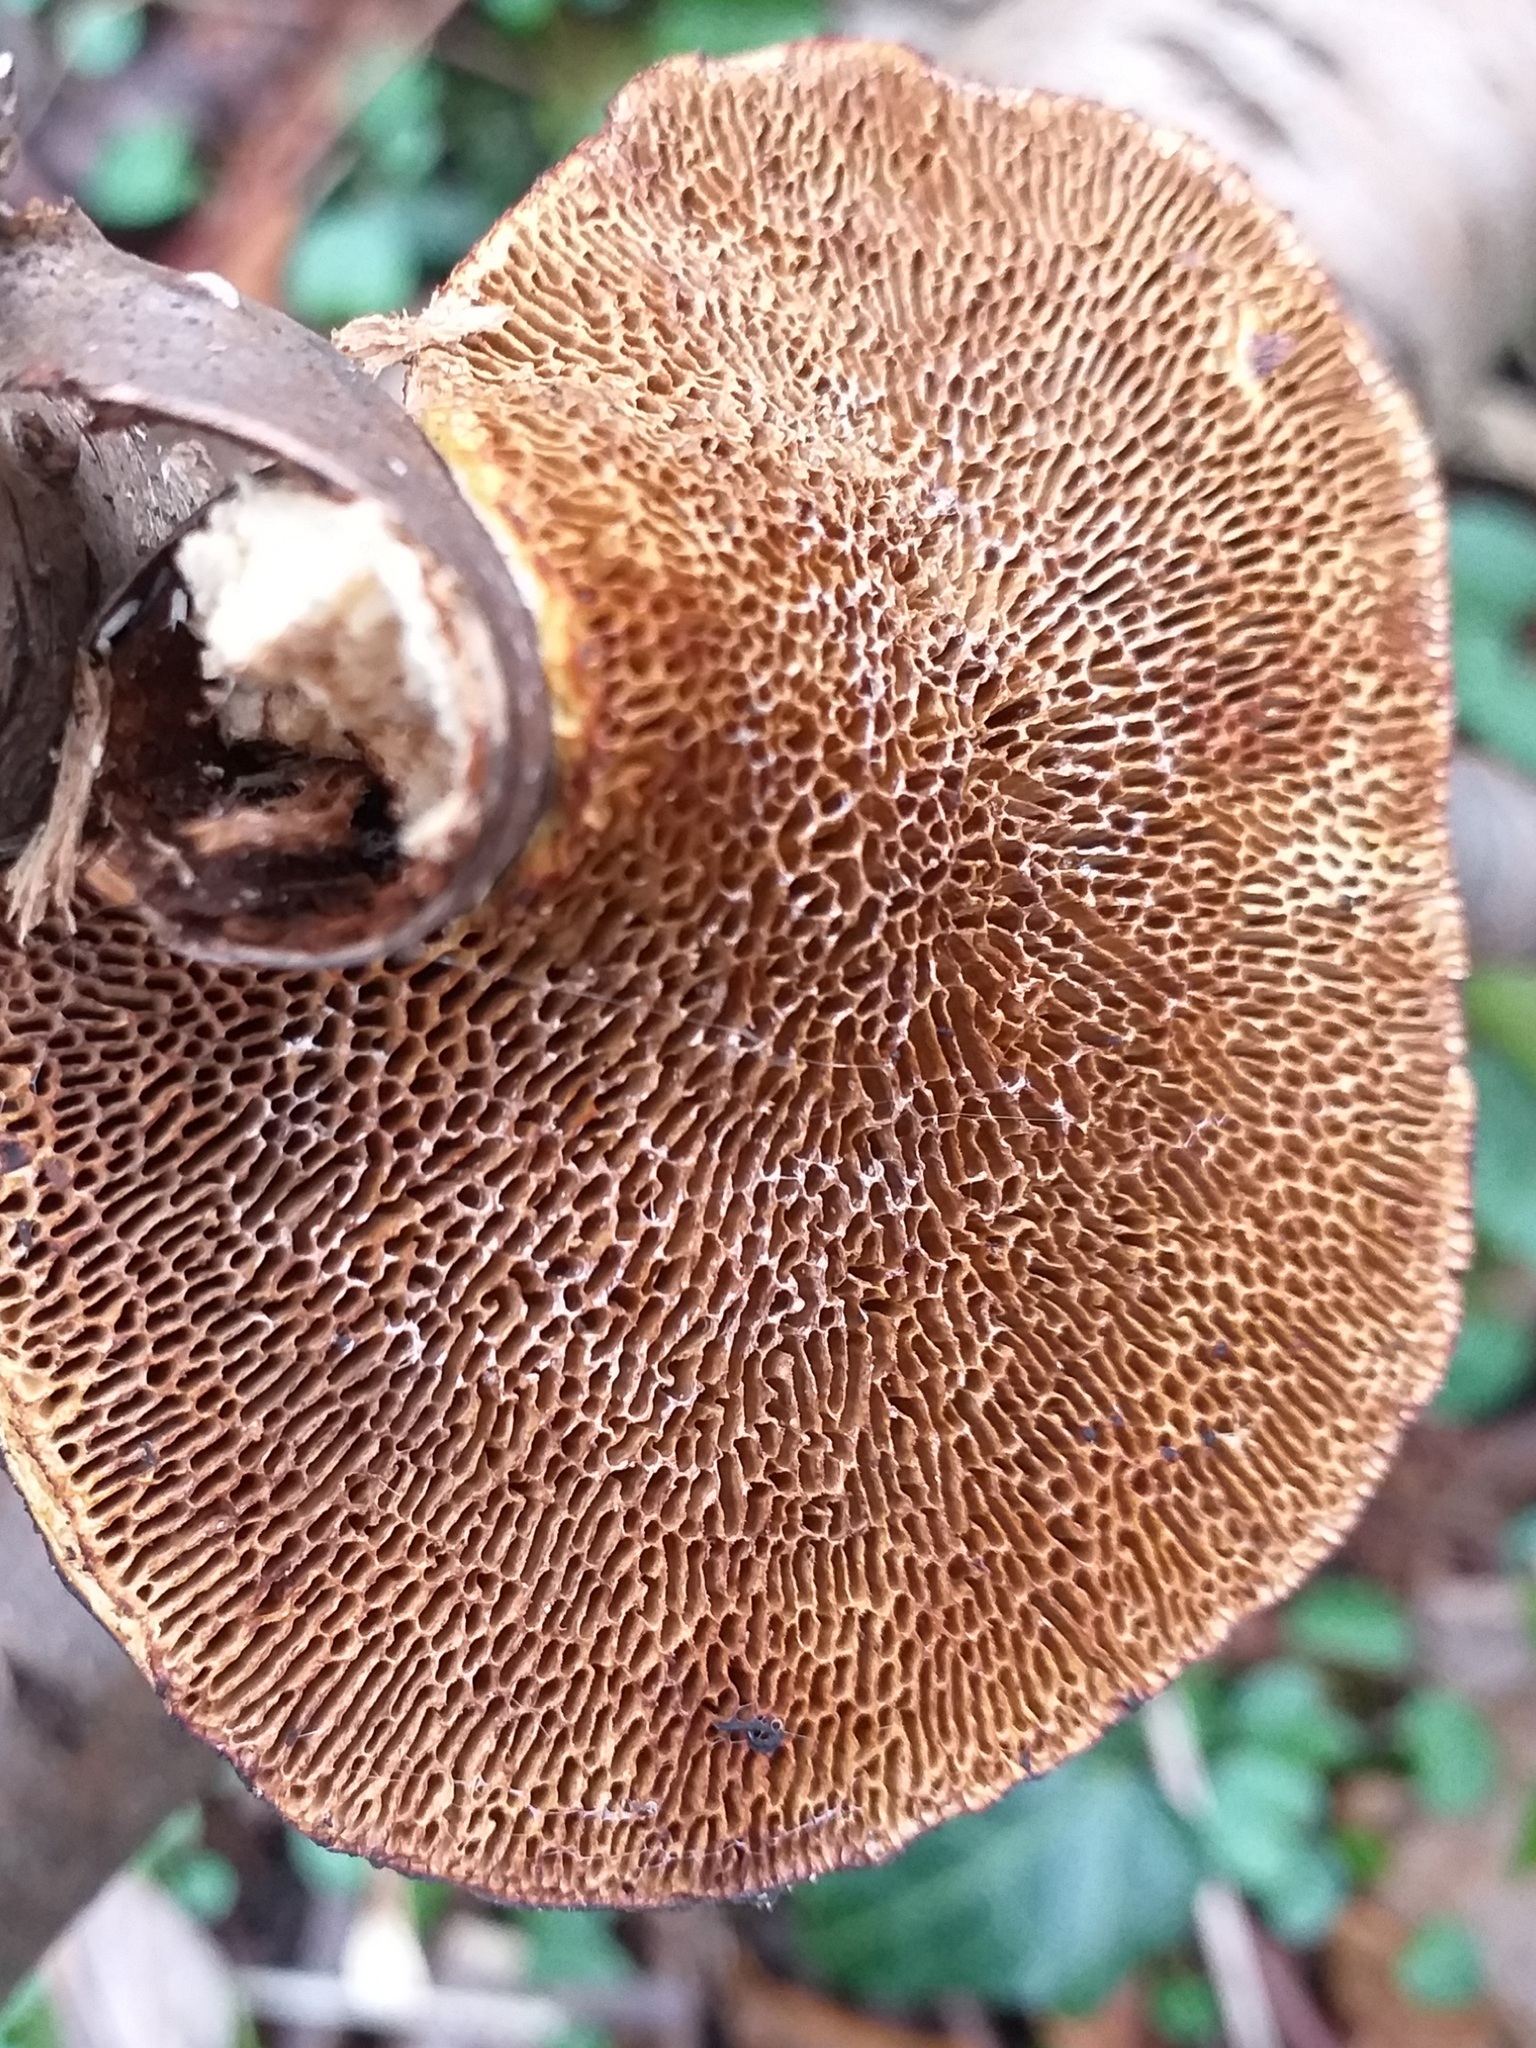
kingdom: Fungi
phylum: Basidiomycota
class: Agaricomycetes
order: Polyporales
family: Polyporaceae
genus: Daedaleopsis
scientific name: Daedaleopsis confragosa
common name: Blushing bracket
